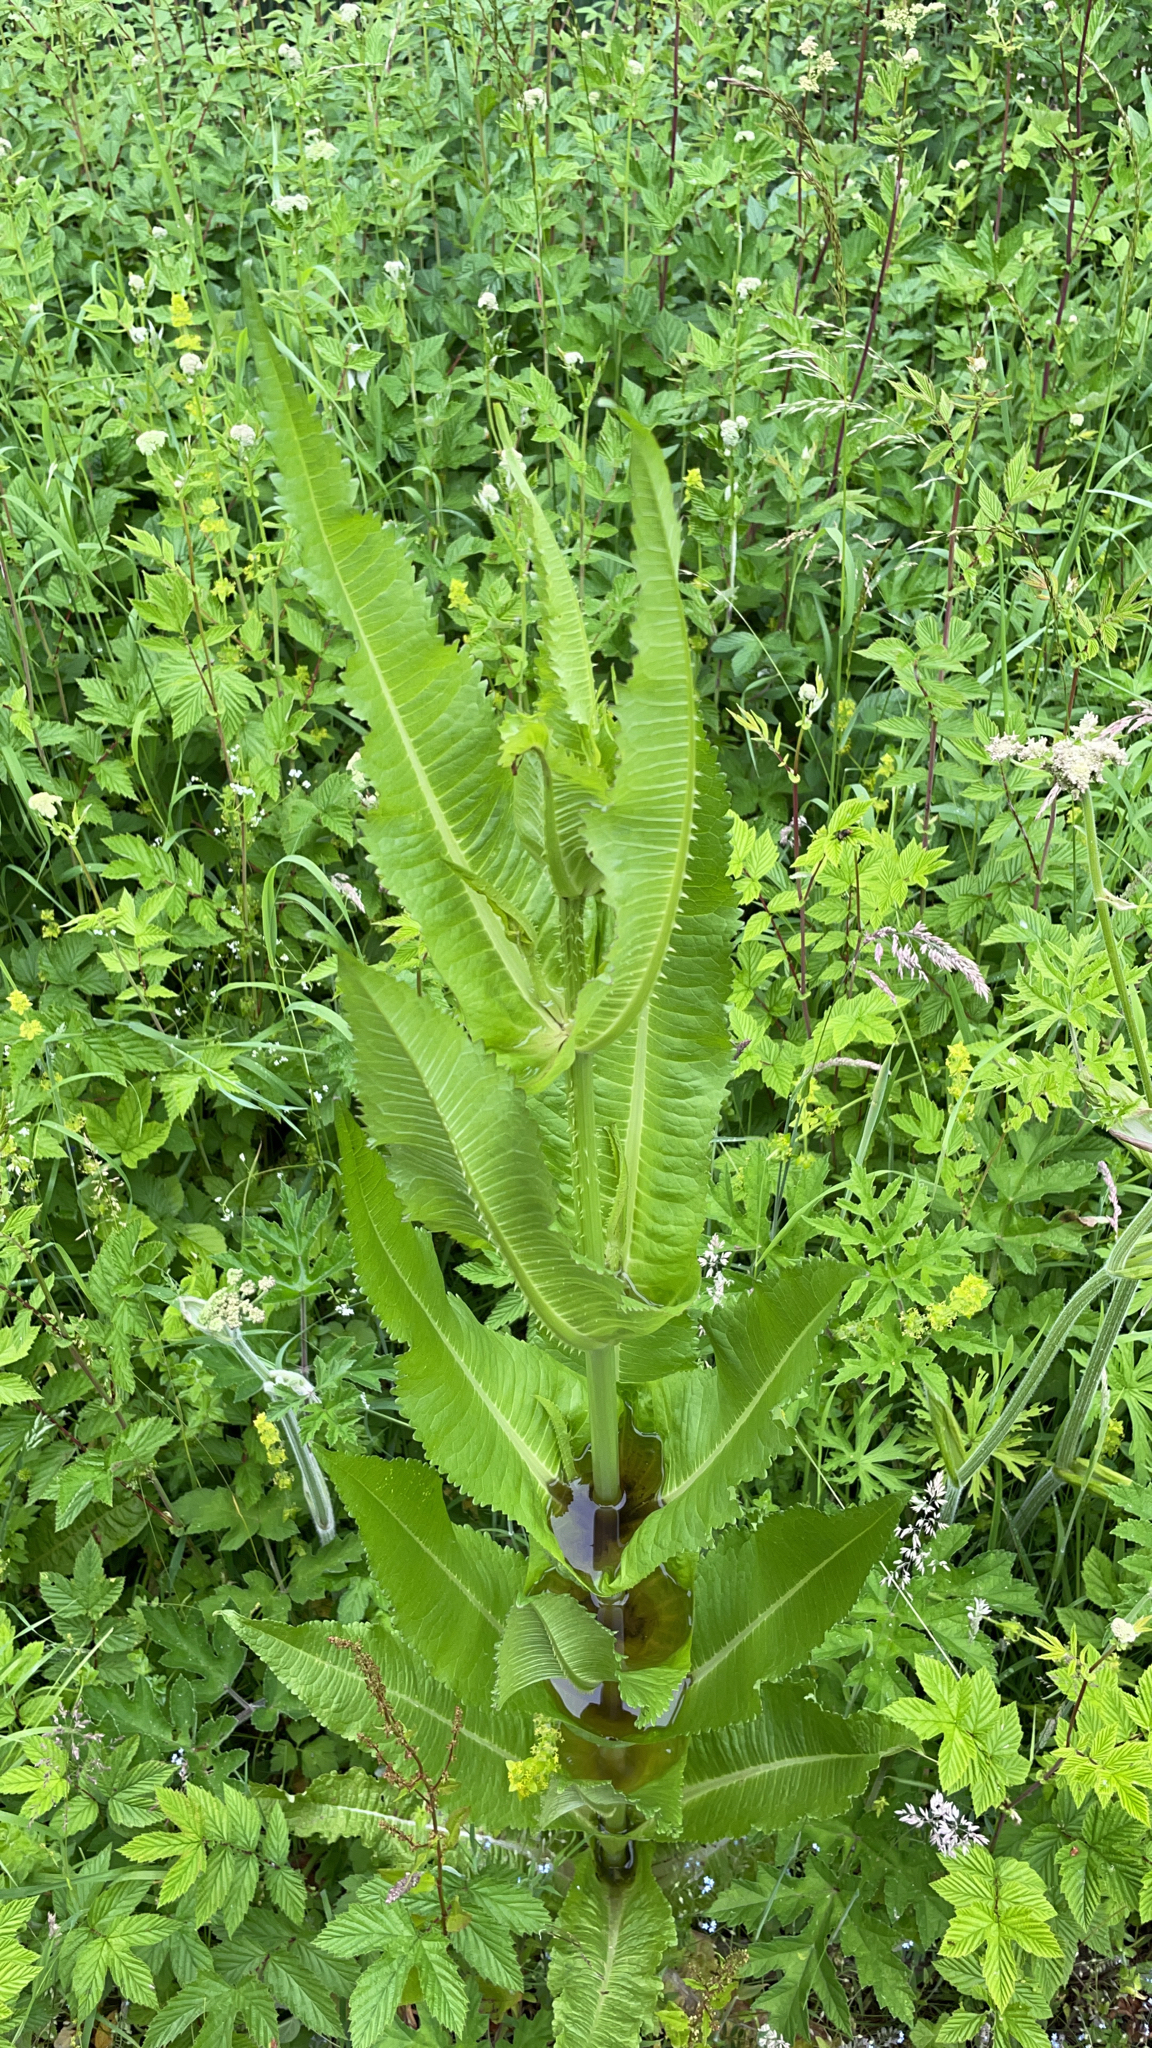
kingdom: Plantae
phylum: Tracheophyta
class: Magnoliopsida
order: Dipsacales
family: Caprifoliaceae
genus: Dipsacus
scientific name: Dipsacus fullonum
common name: Teasel
